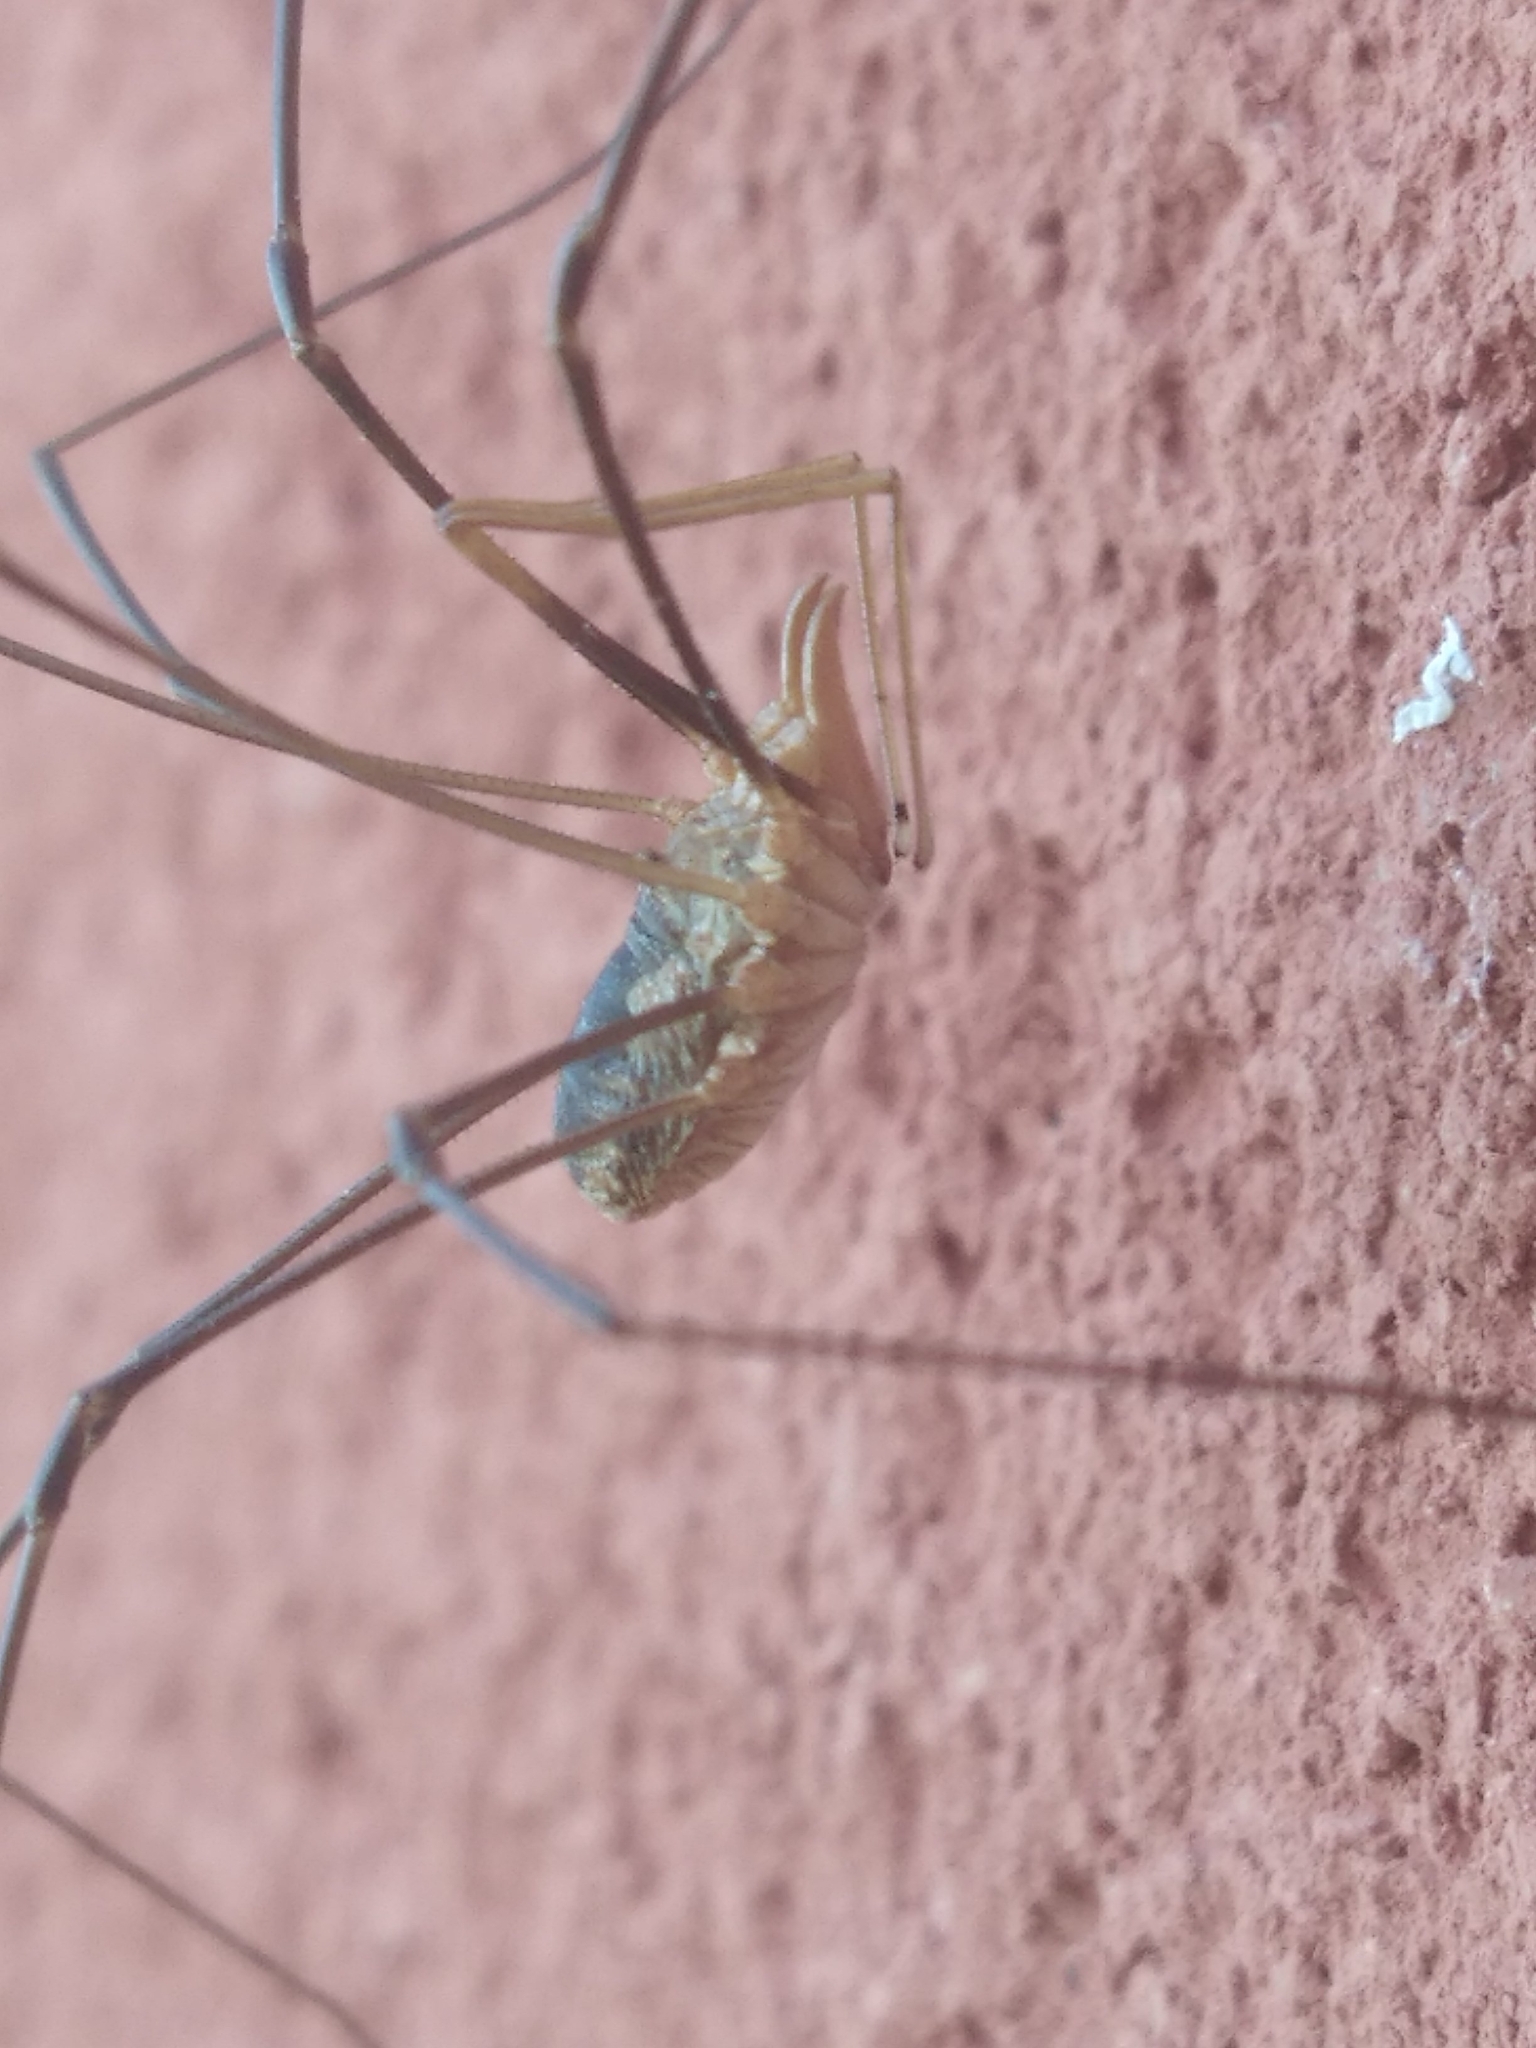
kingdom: Animalia
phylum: Arthropoda
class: Arachnida
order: Opiliones
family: Phalangiidae
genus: Phalangium
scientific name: Phalangium opilio
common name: Daddy longleg
